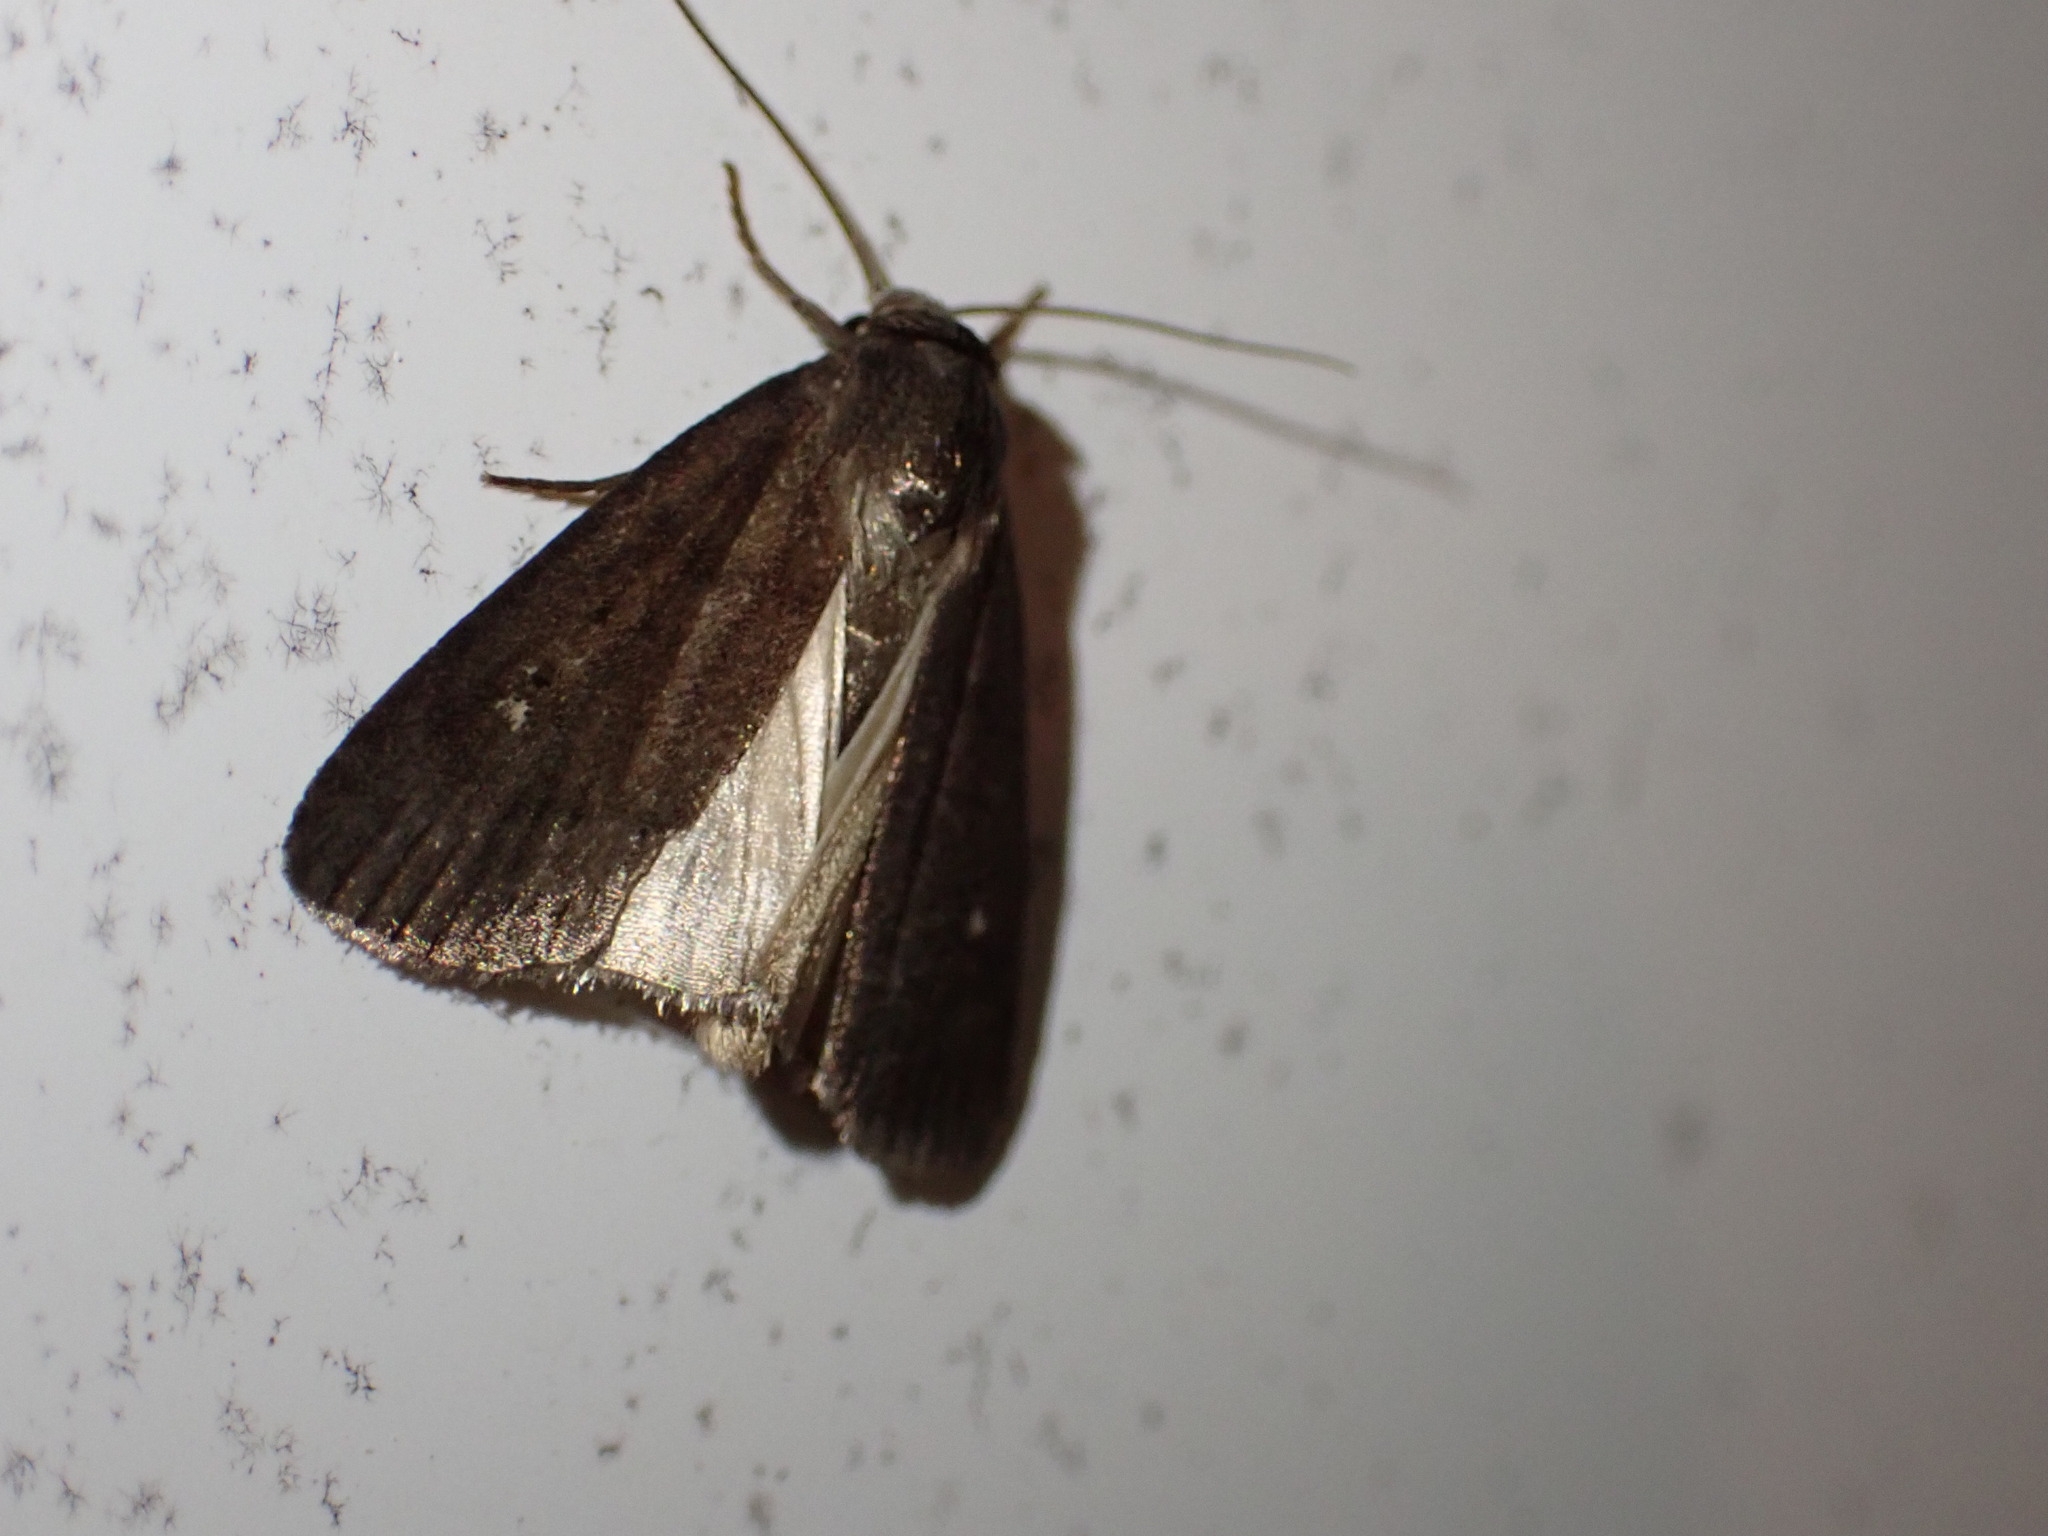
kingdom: Animalia
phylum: Arthropoda
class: Insecta
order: Lepidoptera
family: Noctuidae
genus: Proxenus
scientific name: Proxenus miranda
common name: Miranda moth
